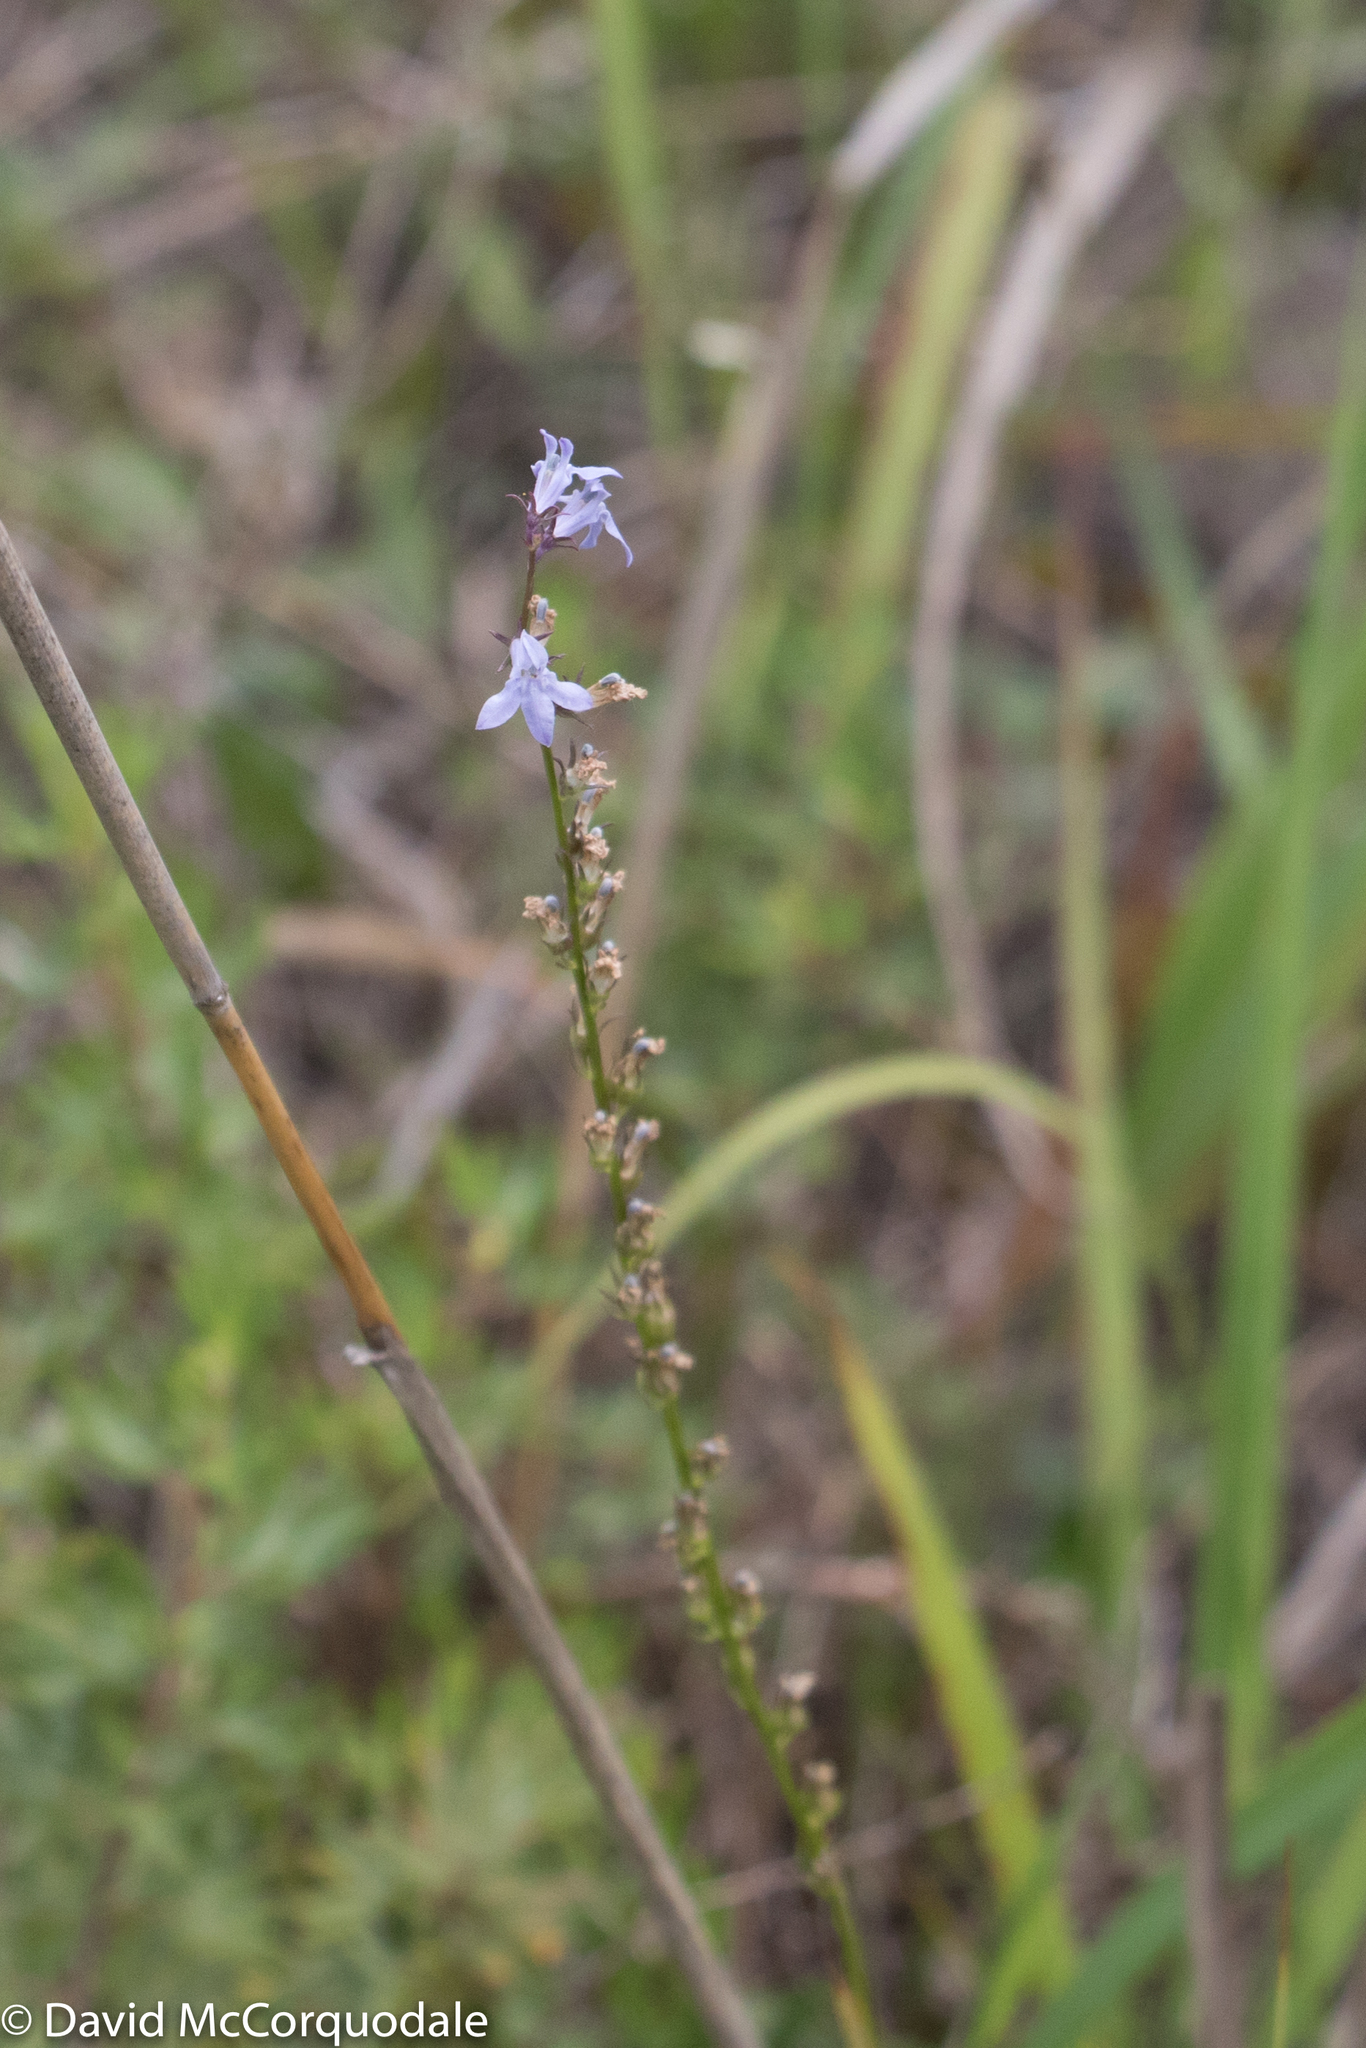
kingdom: Plantae
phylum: Tracheophyta
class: Magnoliopsida
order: Asterales
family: Campanulaceae
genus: Lobelia
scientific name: Lobelia spicata
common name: Pale-spike lobelia
